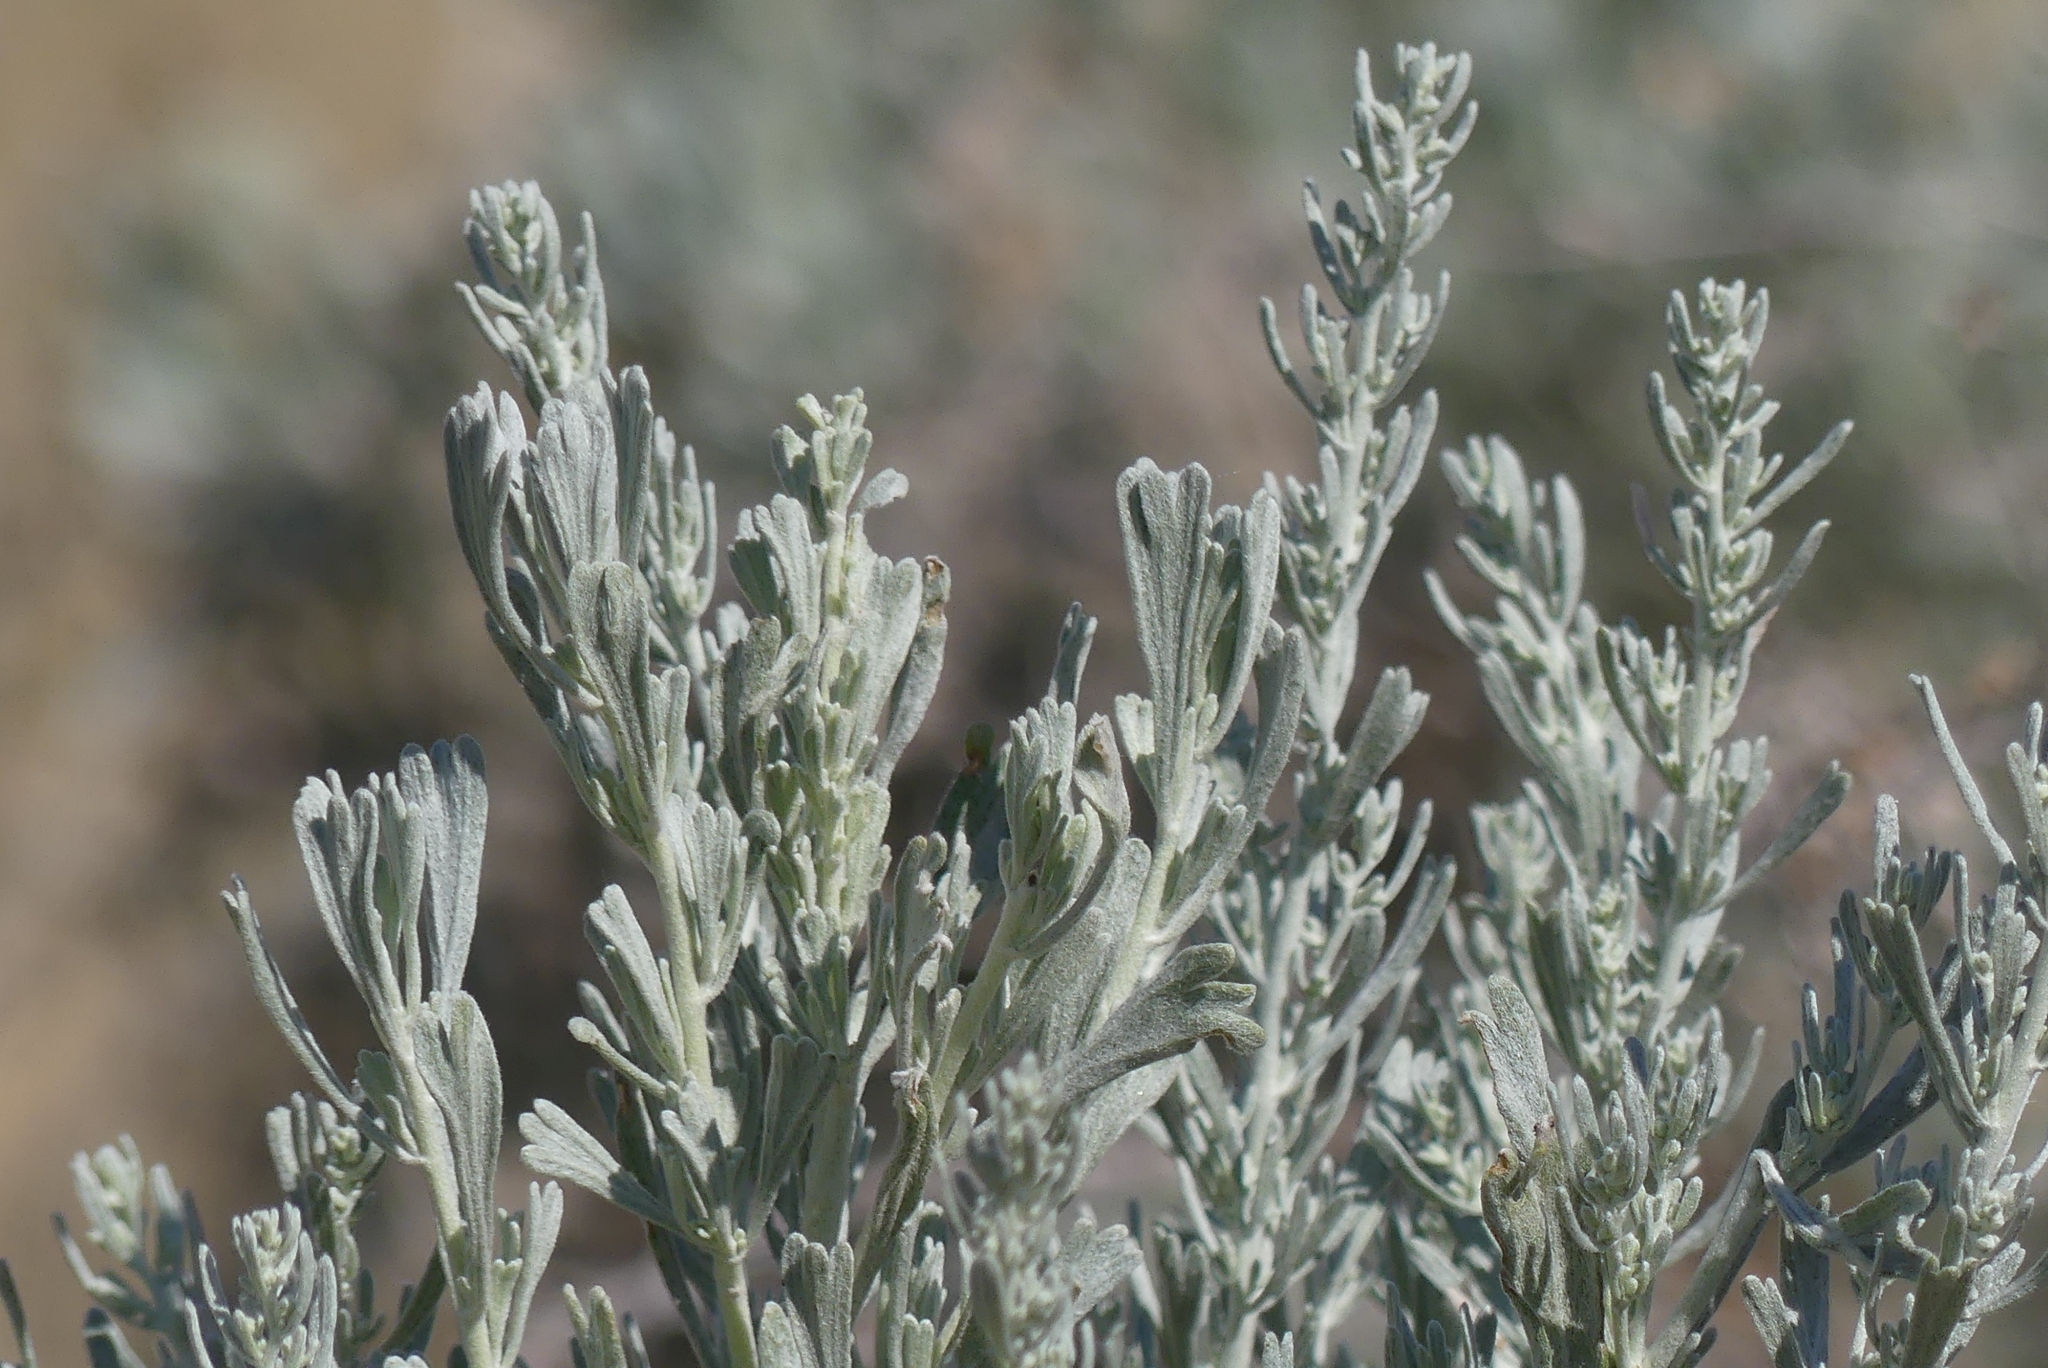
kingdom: Plantae
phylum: Tracheophyta
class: Magnoliopsida
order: Asterales
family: Asteraceae
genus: Artemisia
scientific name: Artemisia tridentata
